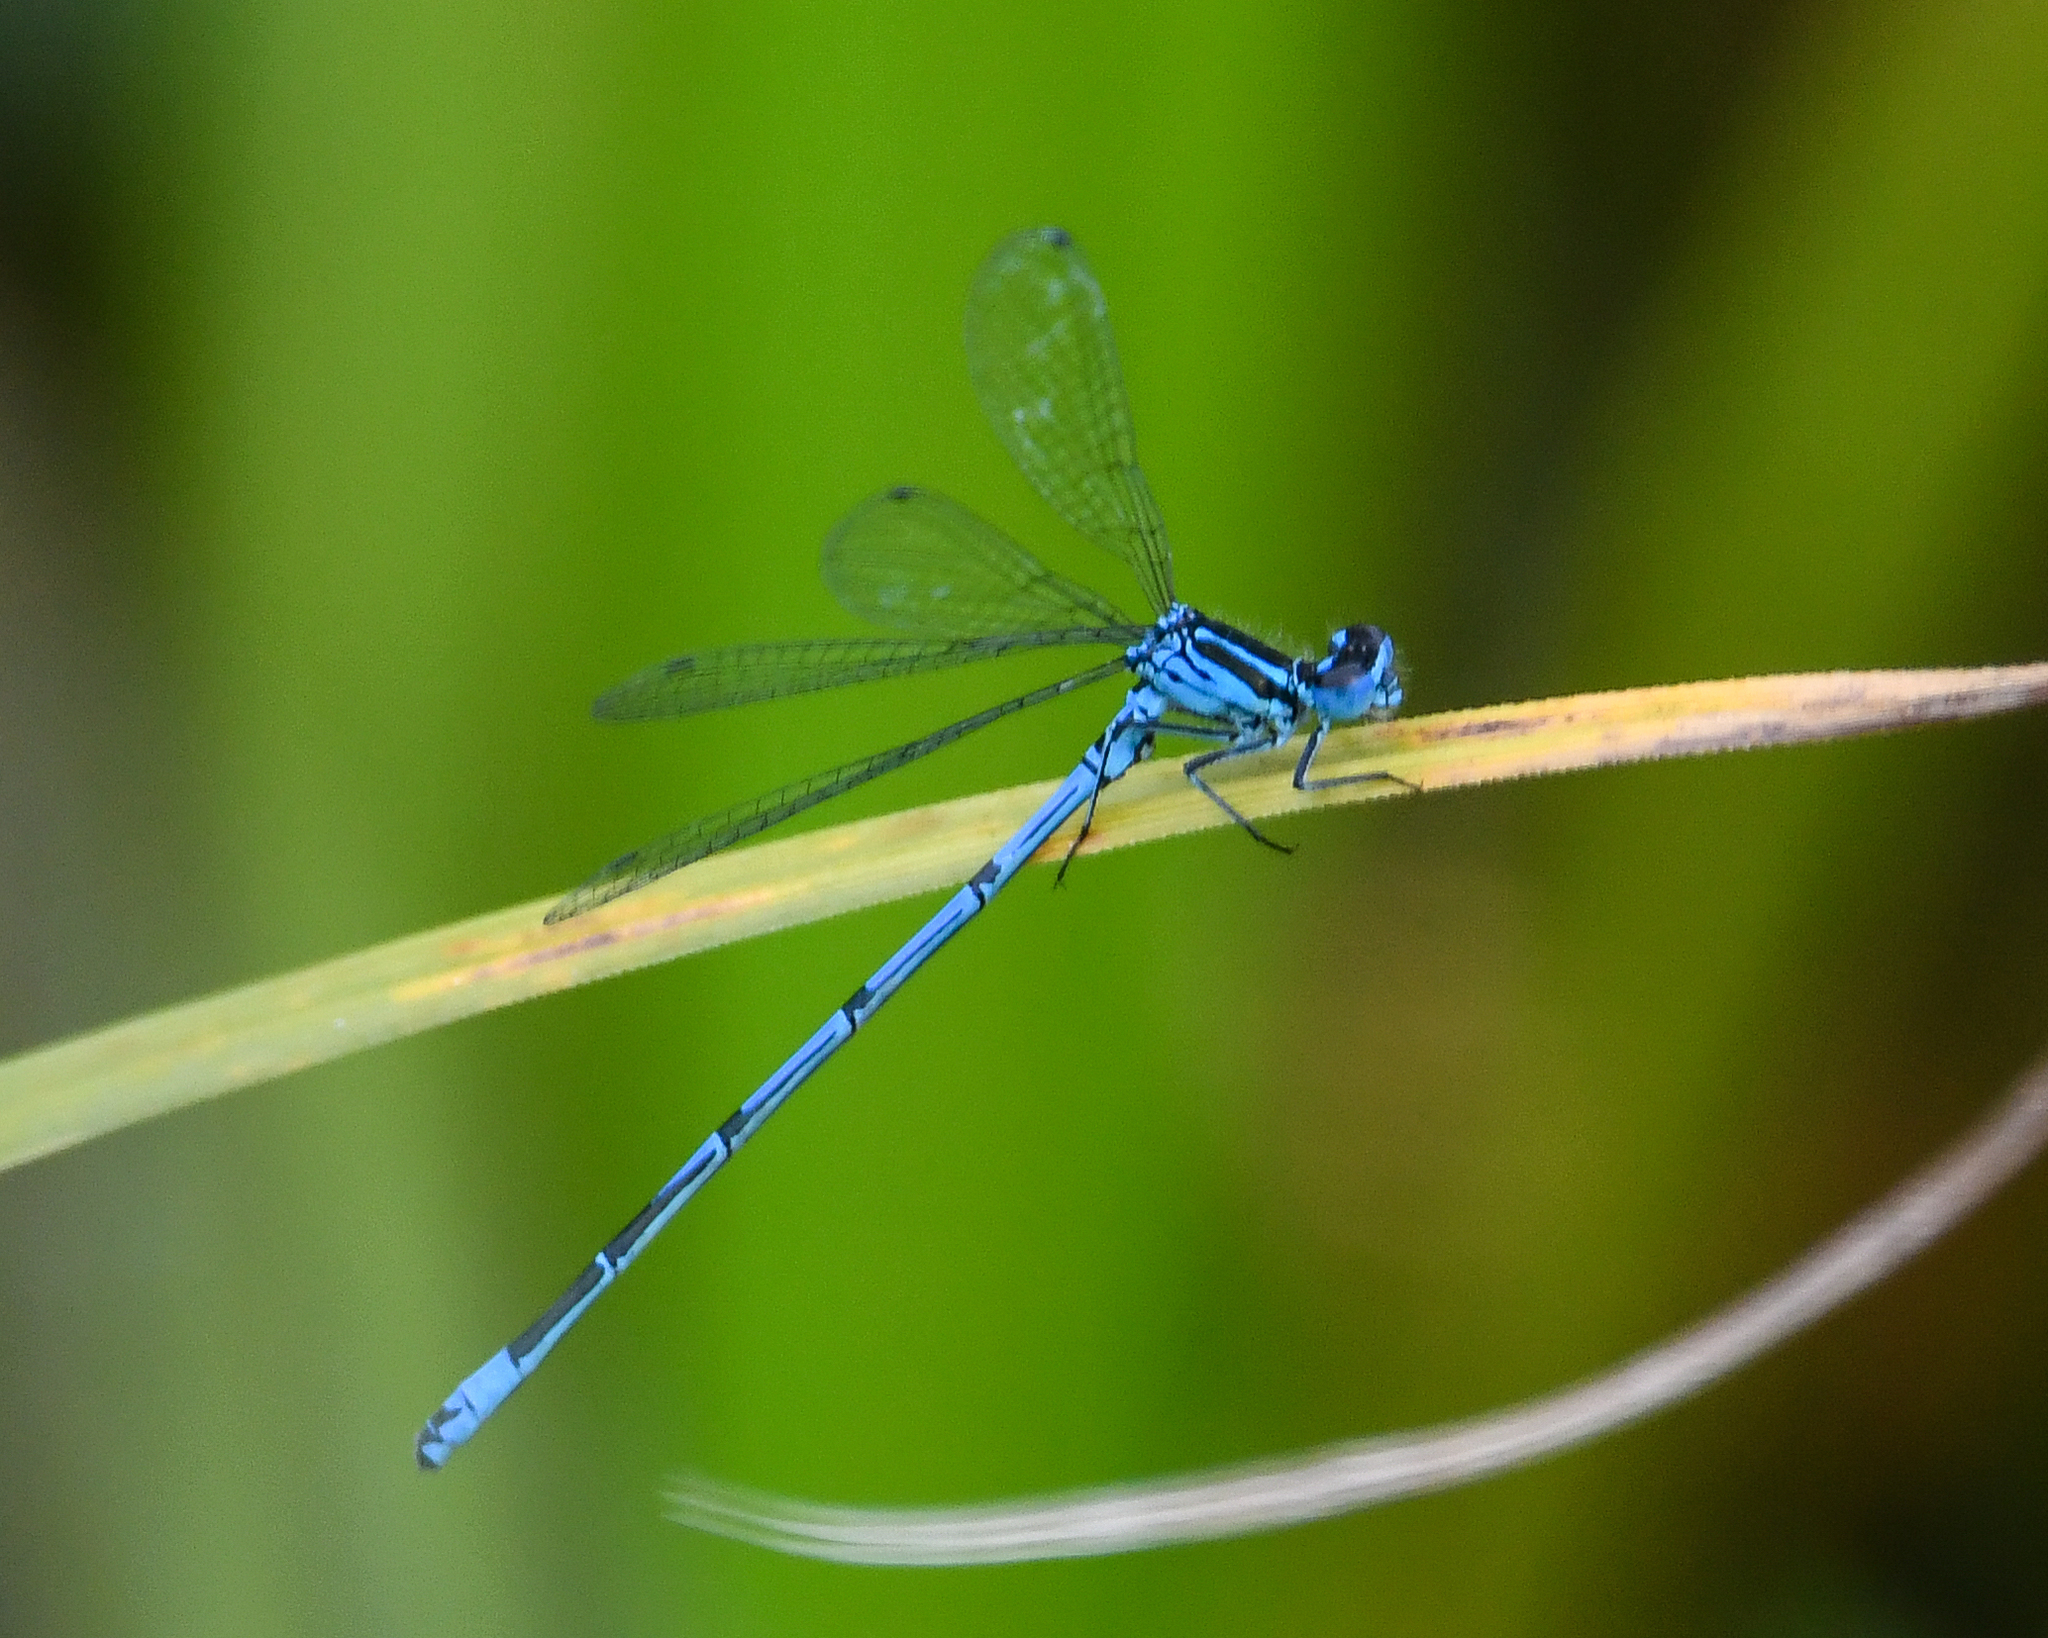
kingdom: Animalia
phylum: Arthropoda
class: Insecta
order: Odonata
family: Coenagrionidae
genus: Coenagrion
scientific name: Coenagrion puella
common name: Azure damselfly
